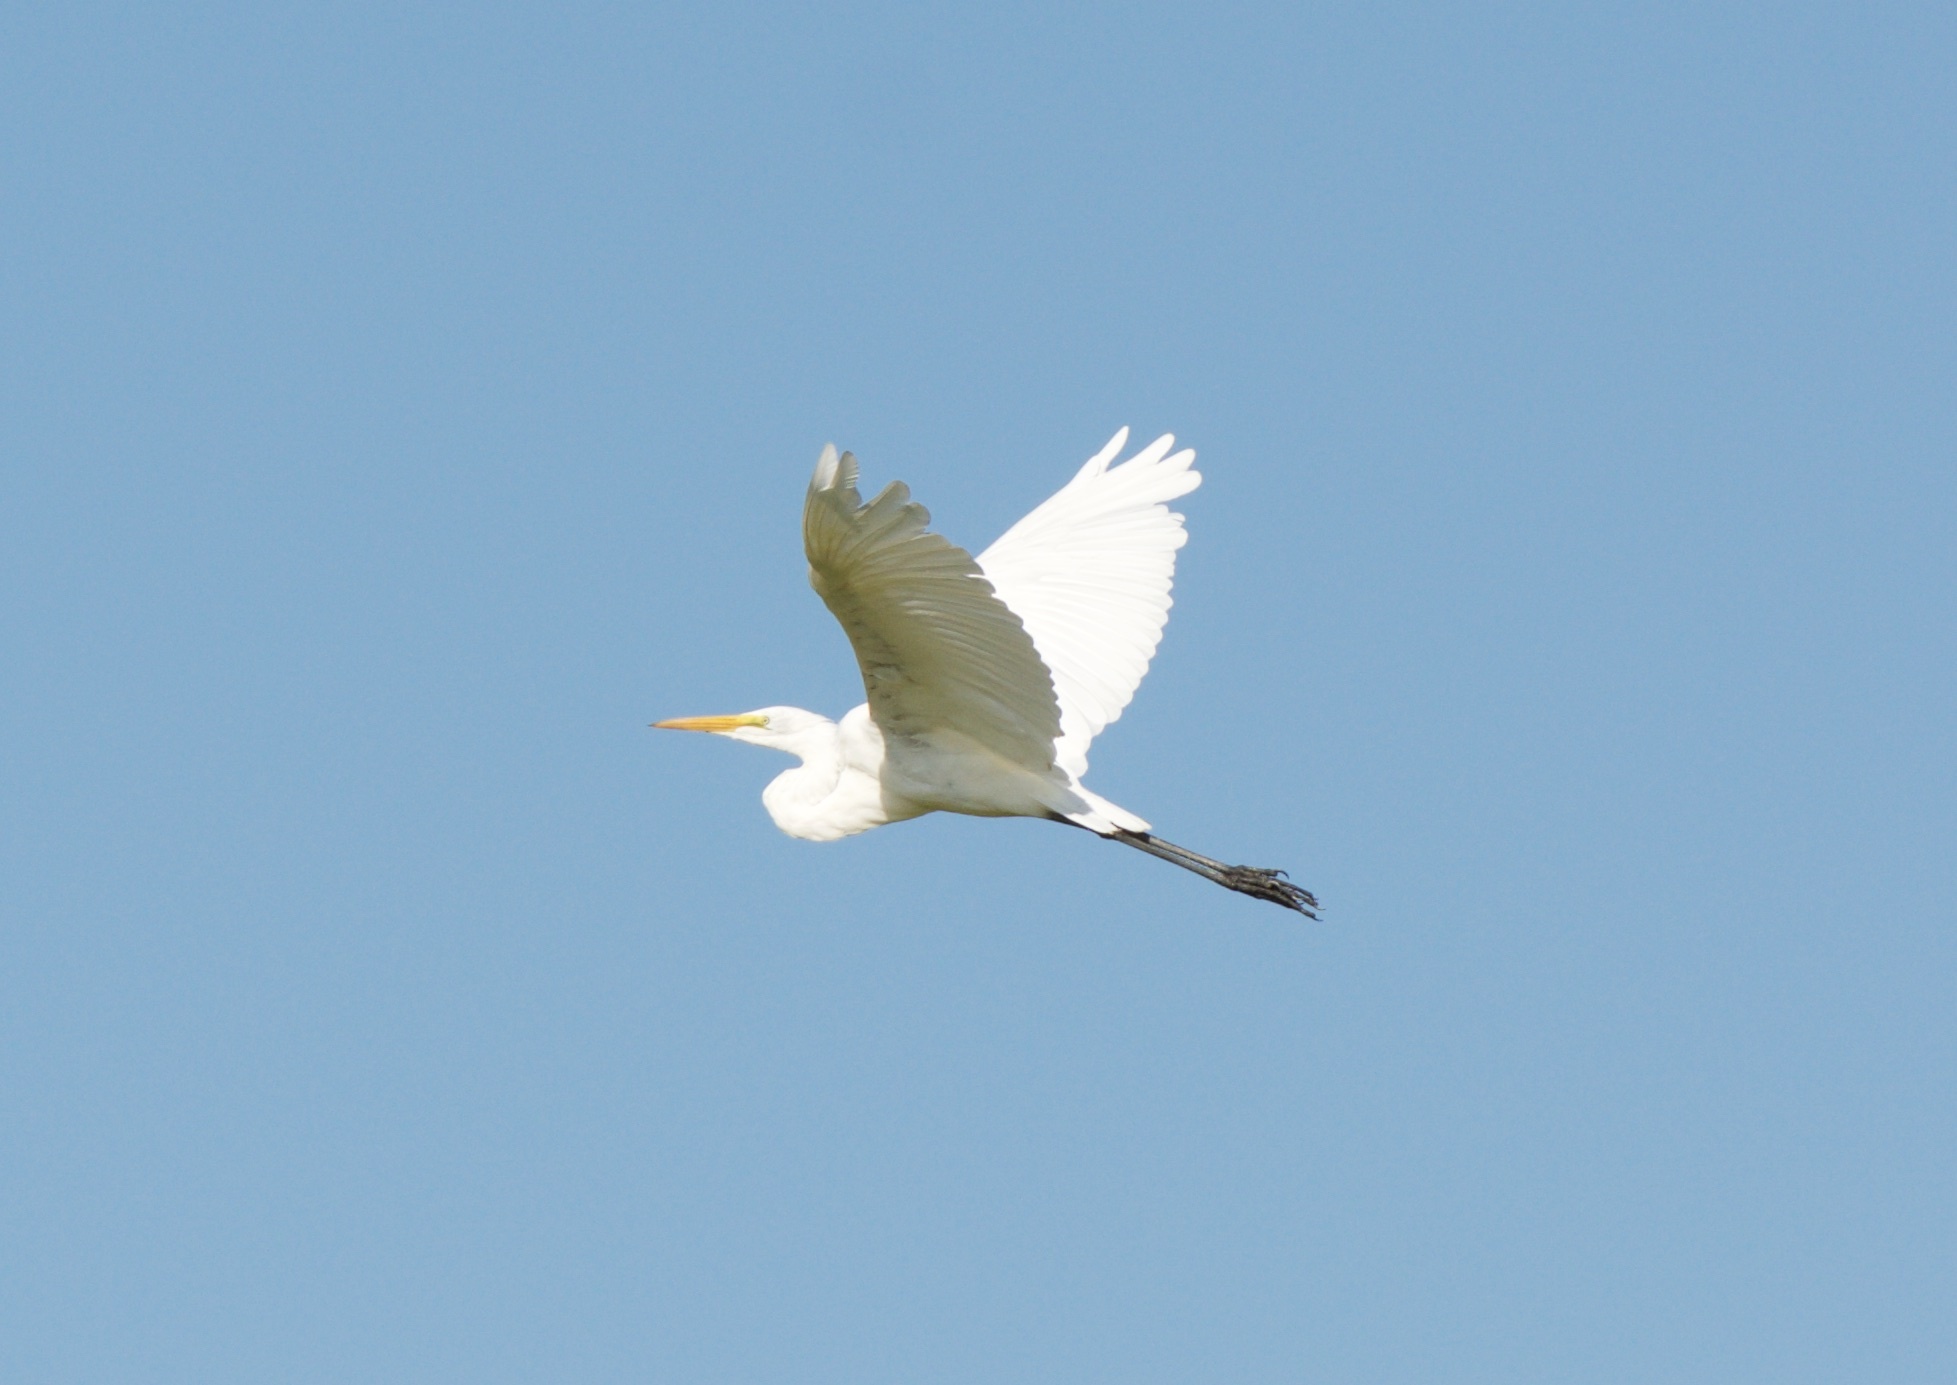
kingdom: Animalia
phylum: Chordata
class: Aves
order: Pelecaniformes
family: Ardeidae
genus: Ardea
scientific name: Ardea alba
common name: Great egret
